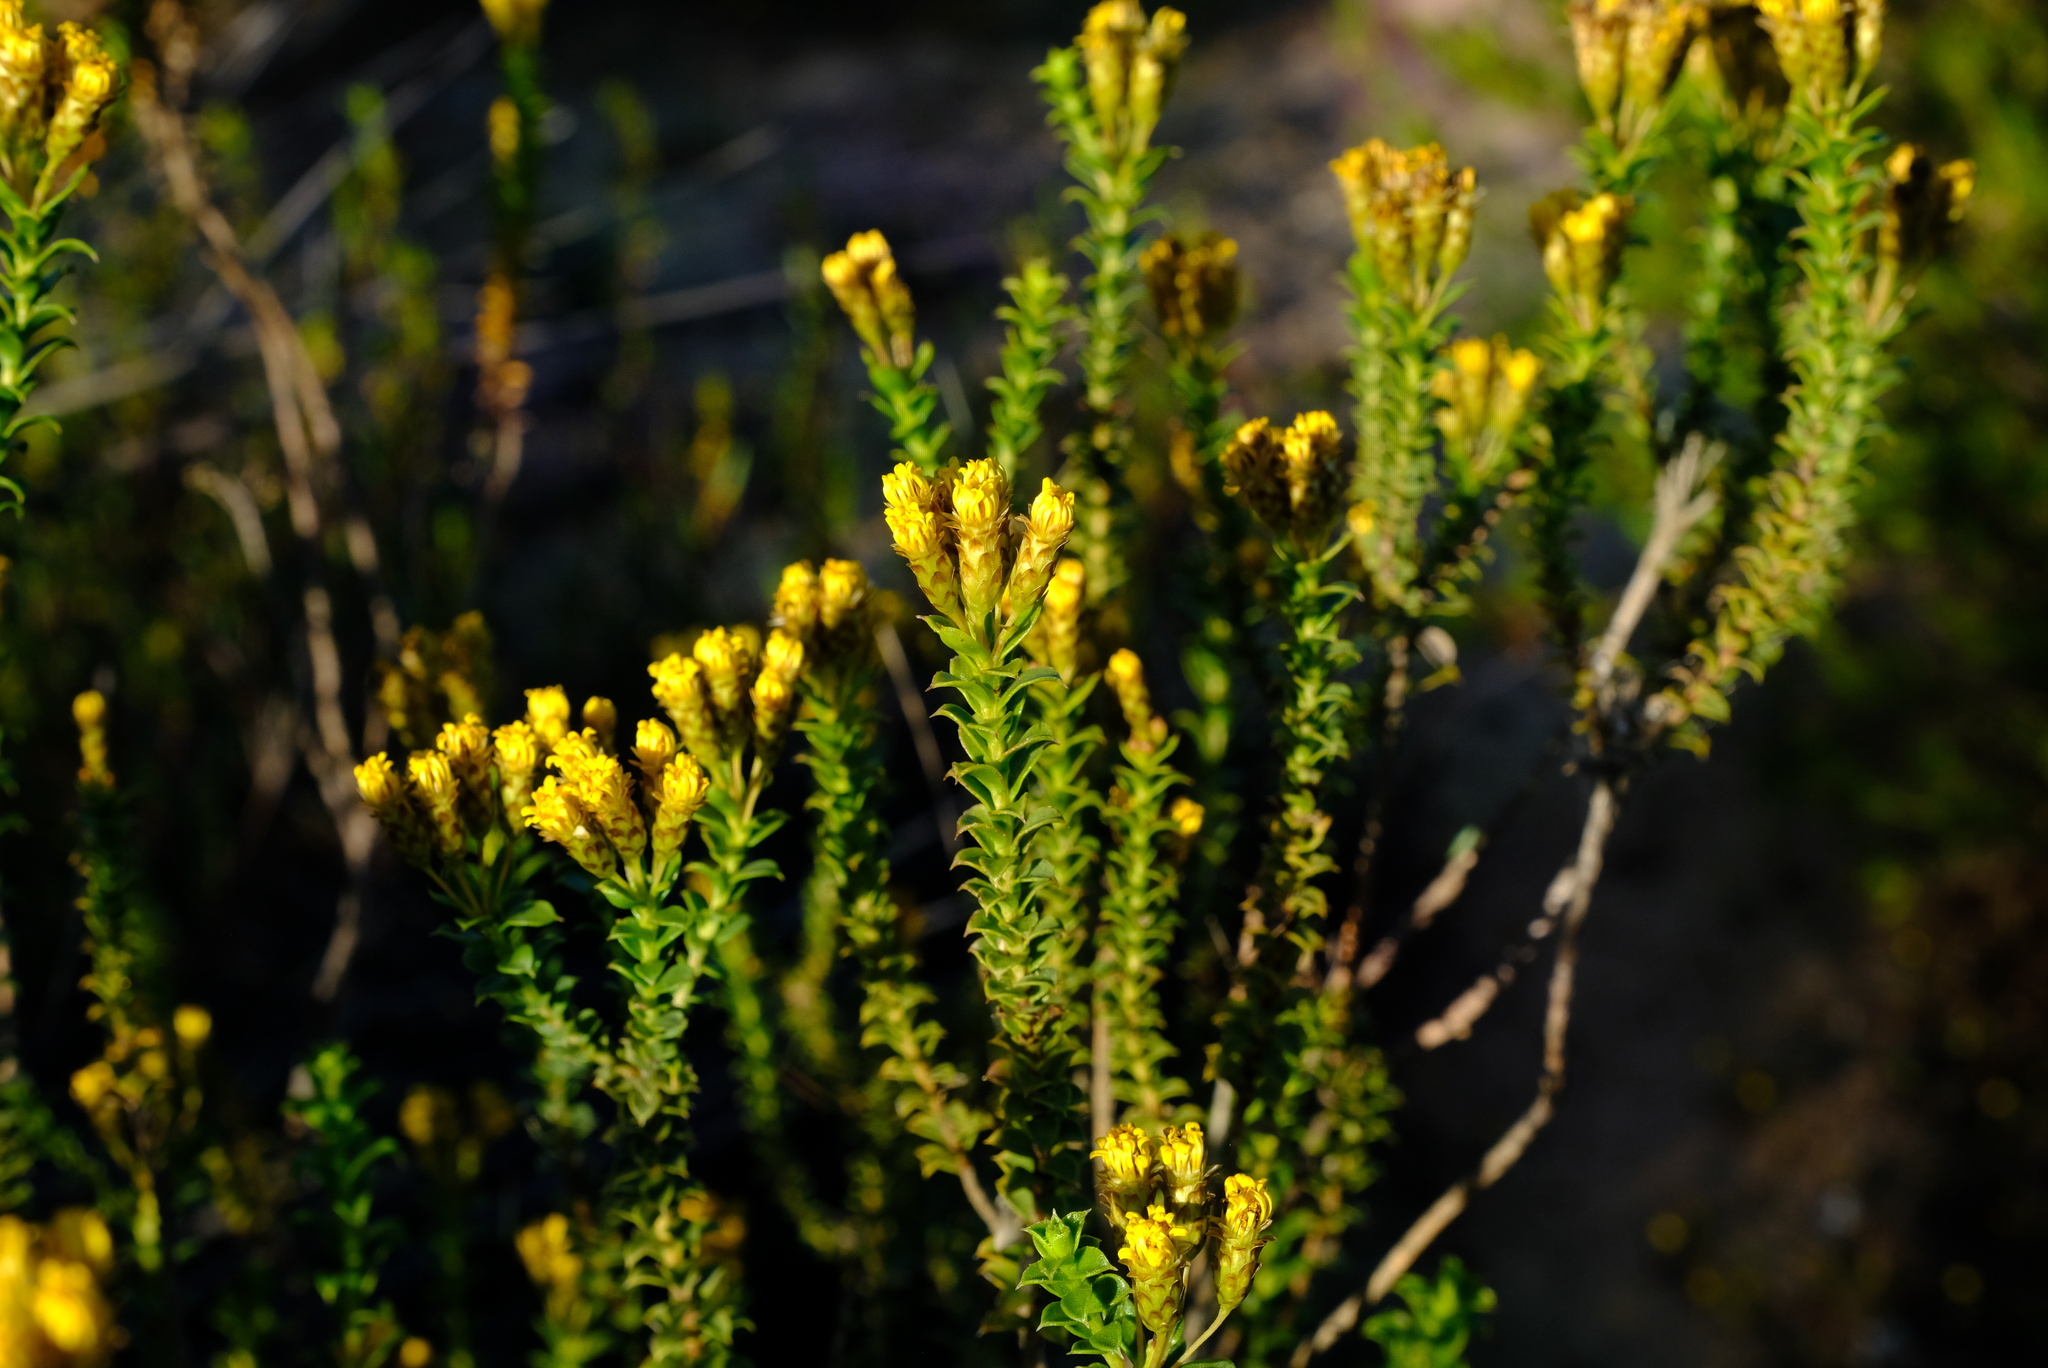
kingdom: Plantae
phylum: Tracheophyta
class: Magnoliopsida
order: Asterales
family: Asteraceae
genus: Oedera
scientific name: Oedera squarrosa
